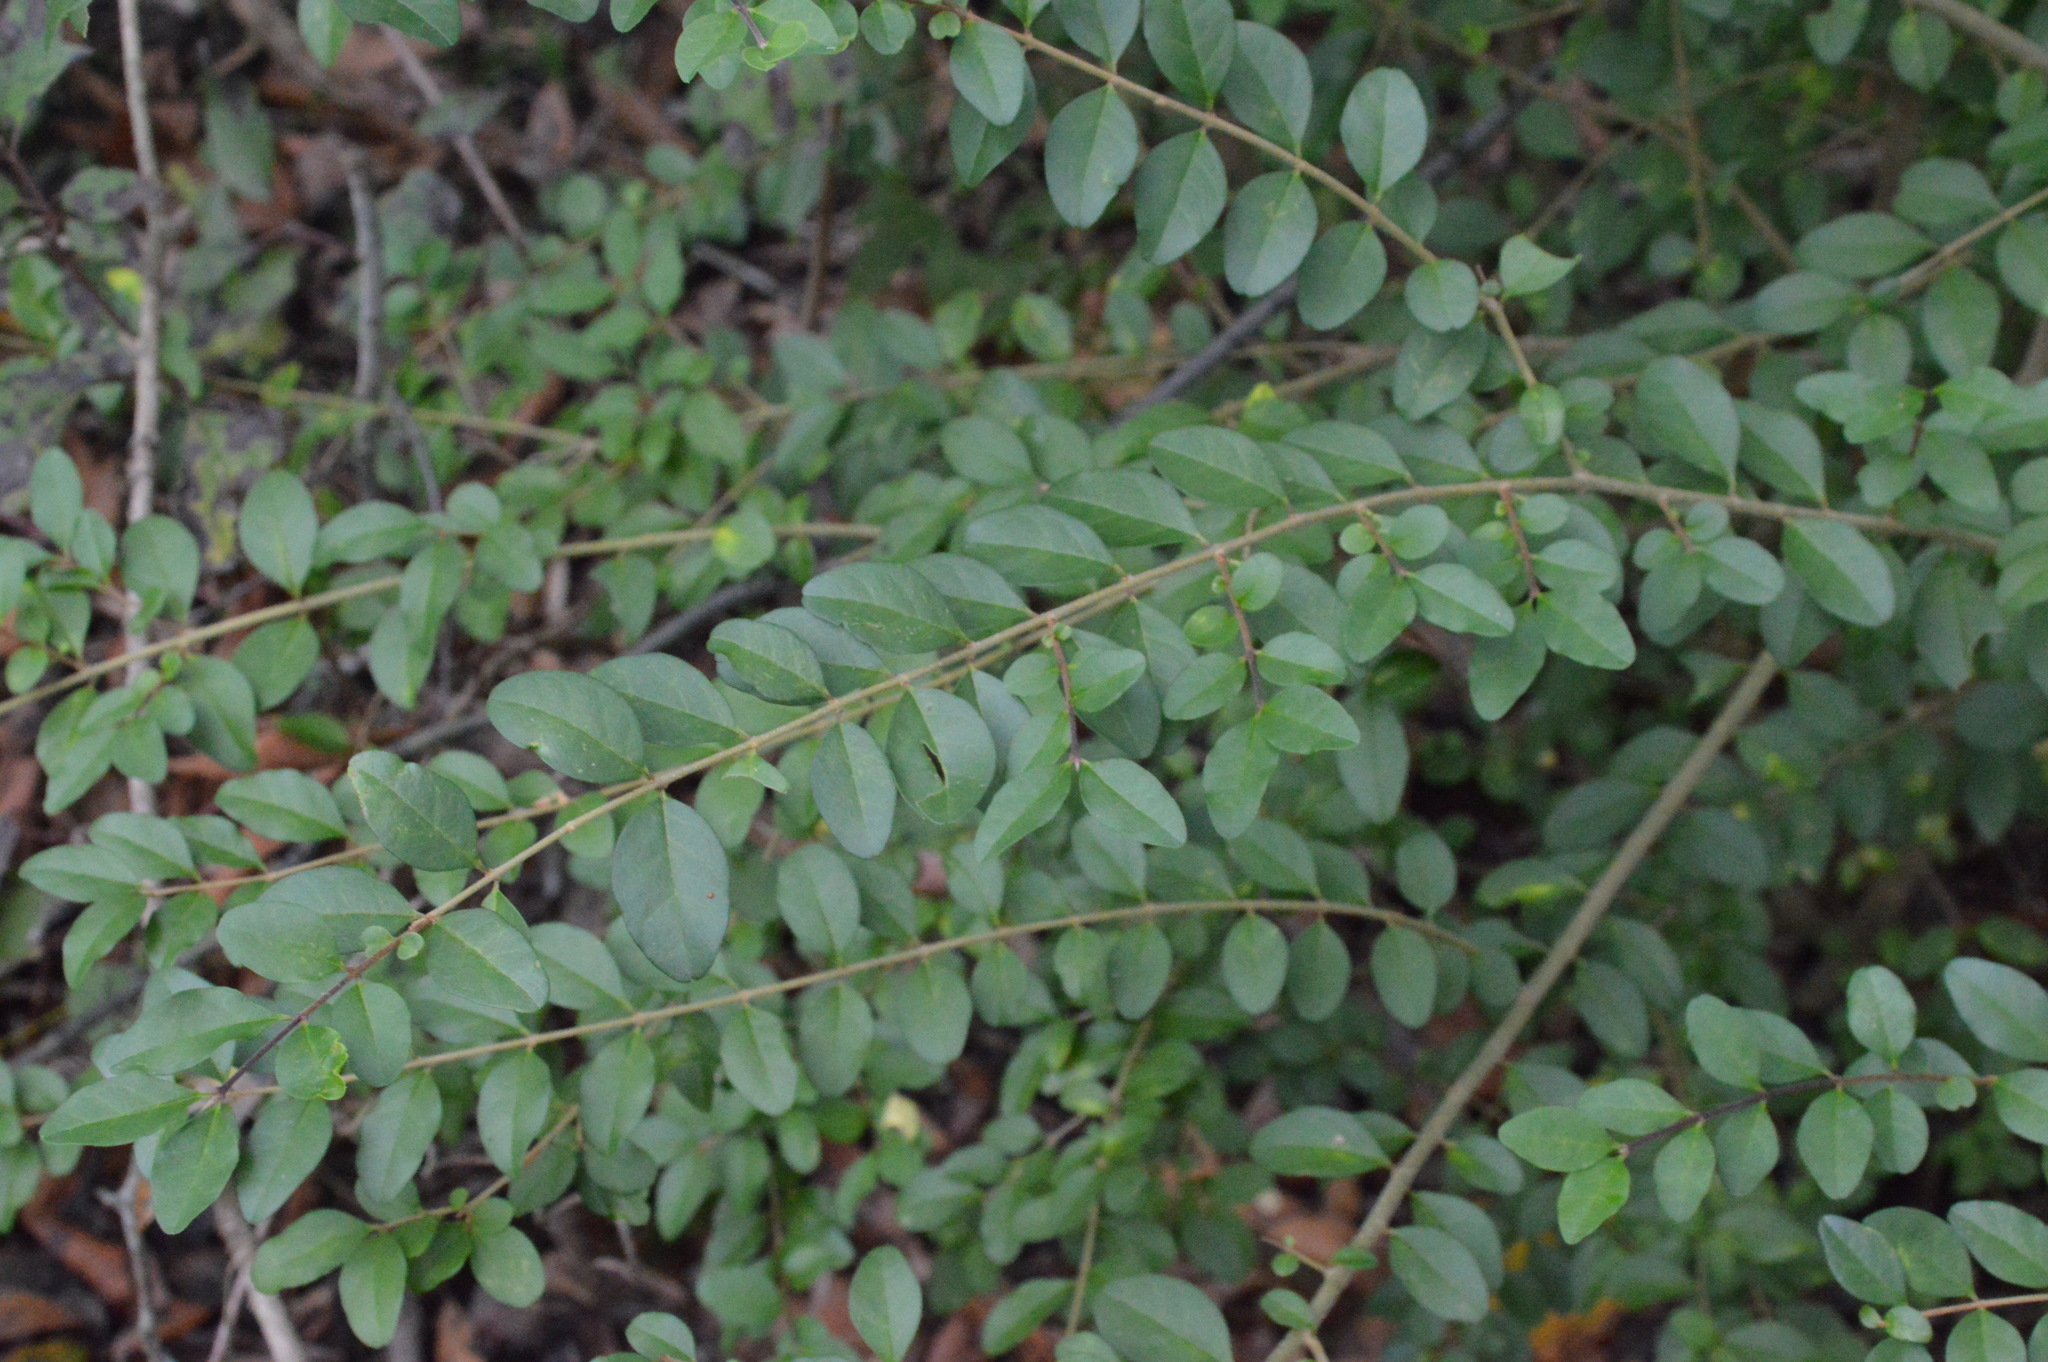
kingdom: Plantae
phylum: Tracheophyta
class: Magnoliopsida
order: Lamiales
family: Oleaceae
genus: Ligustrum
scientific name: Ligustrum sinense
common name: Chinese privet
